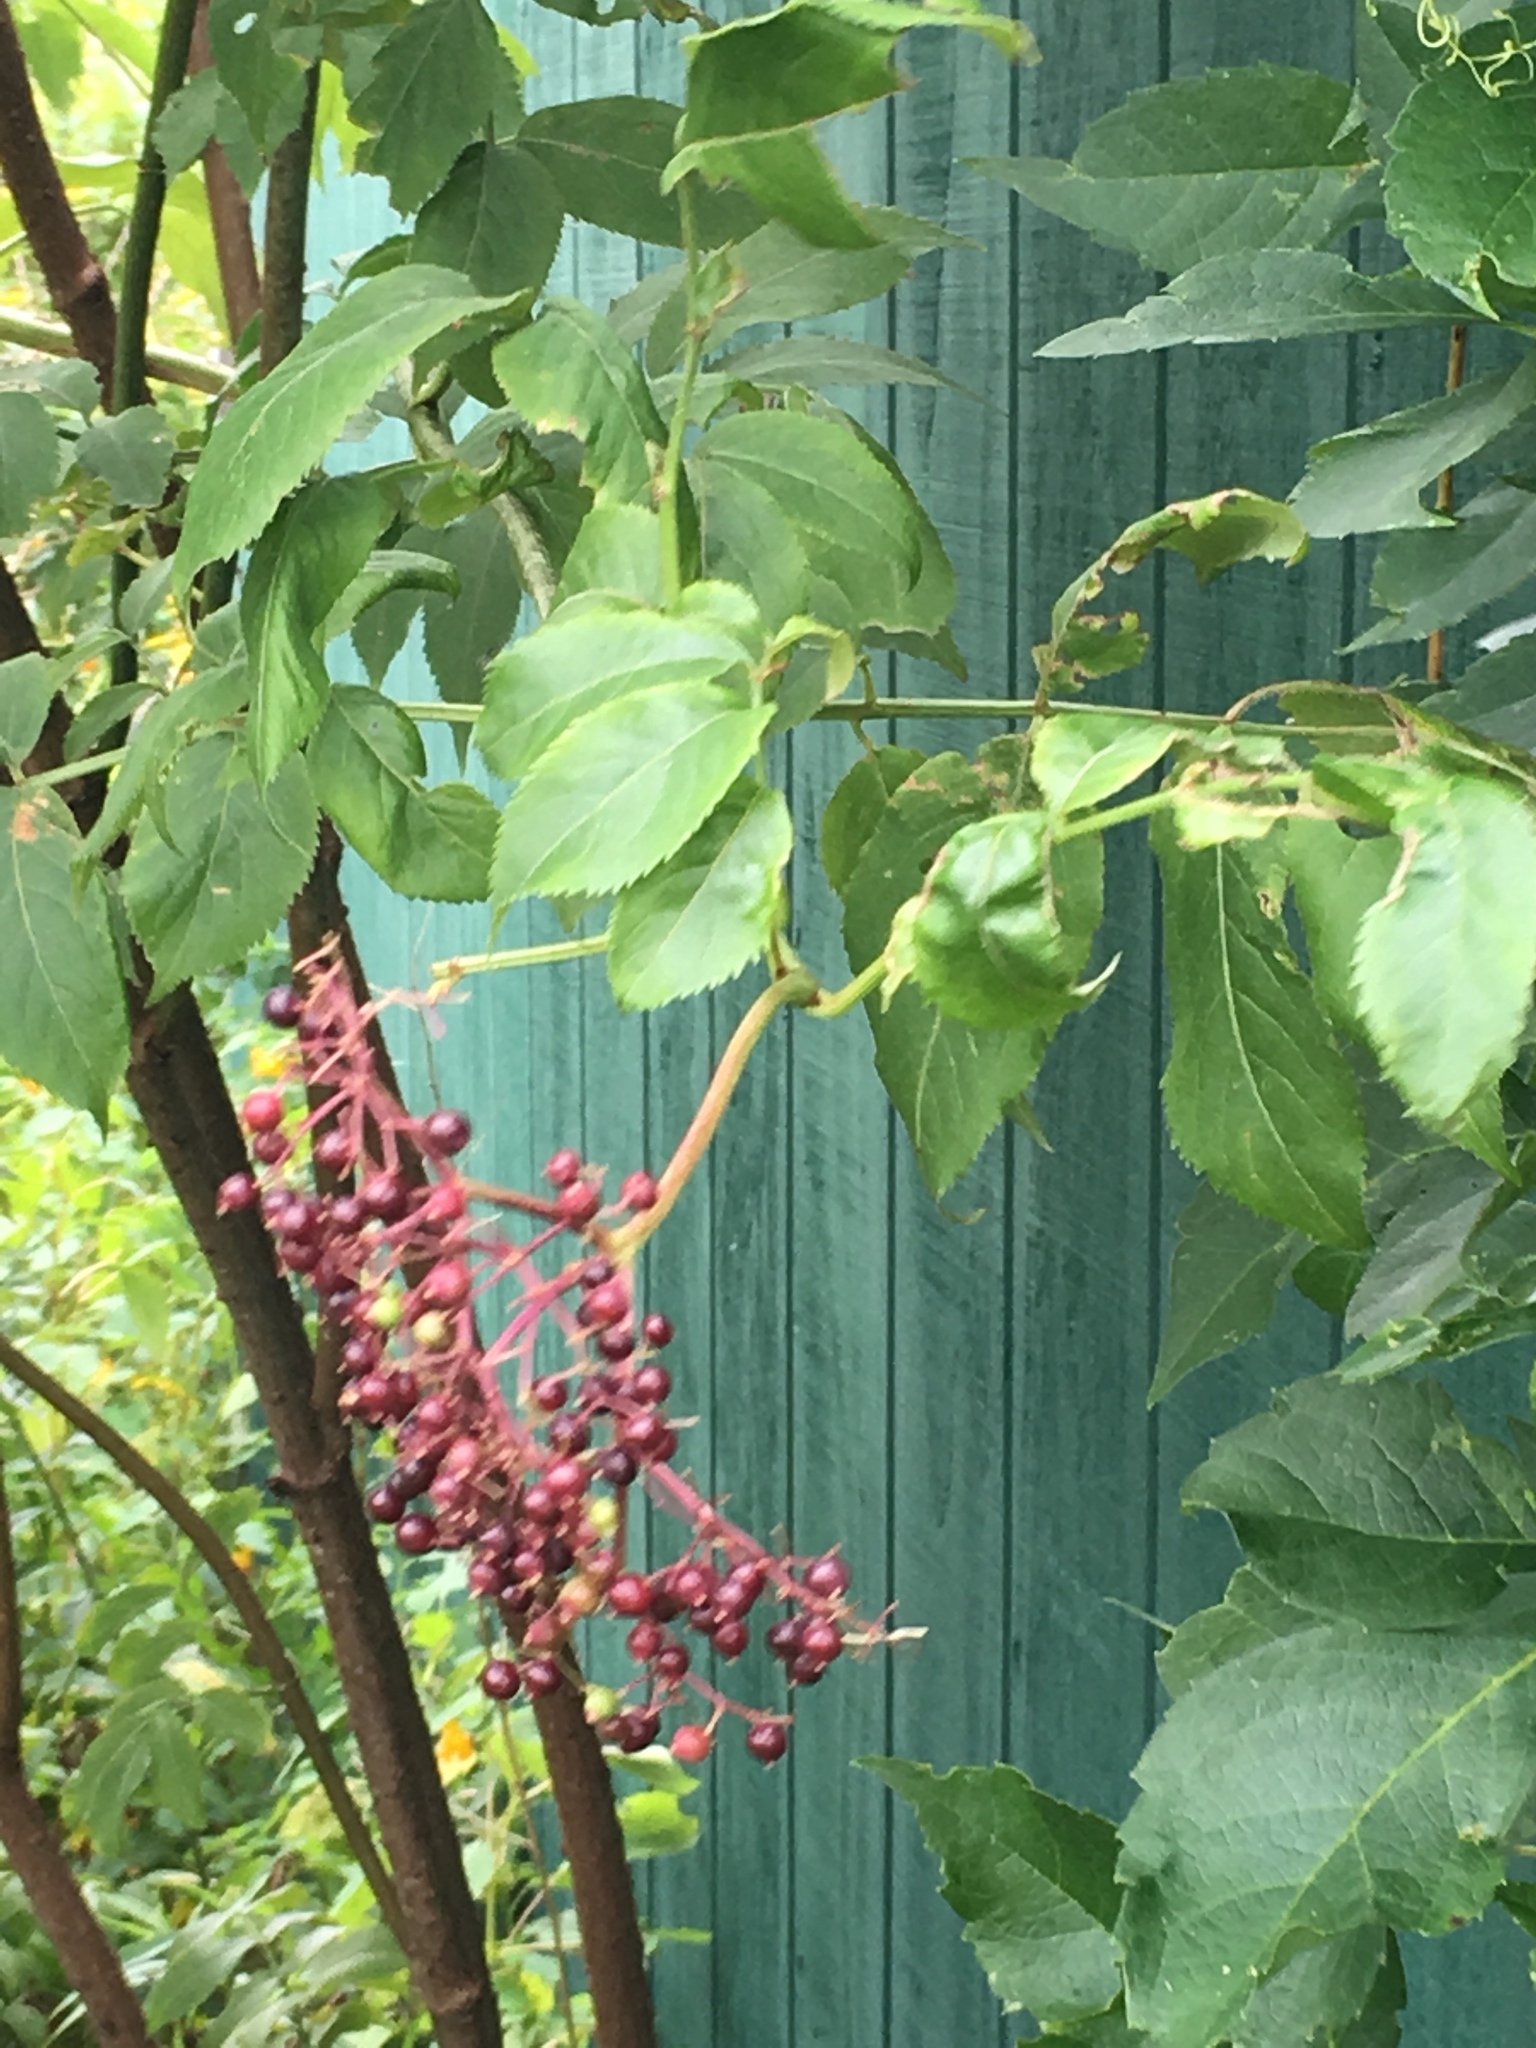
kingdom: Plantae
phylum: Tracheophyta
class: Magnoliopsida
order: Dipsacales
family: Viburnaceae
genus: Sambucus
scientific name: Sambucus canadensis
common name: American elder
